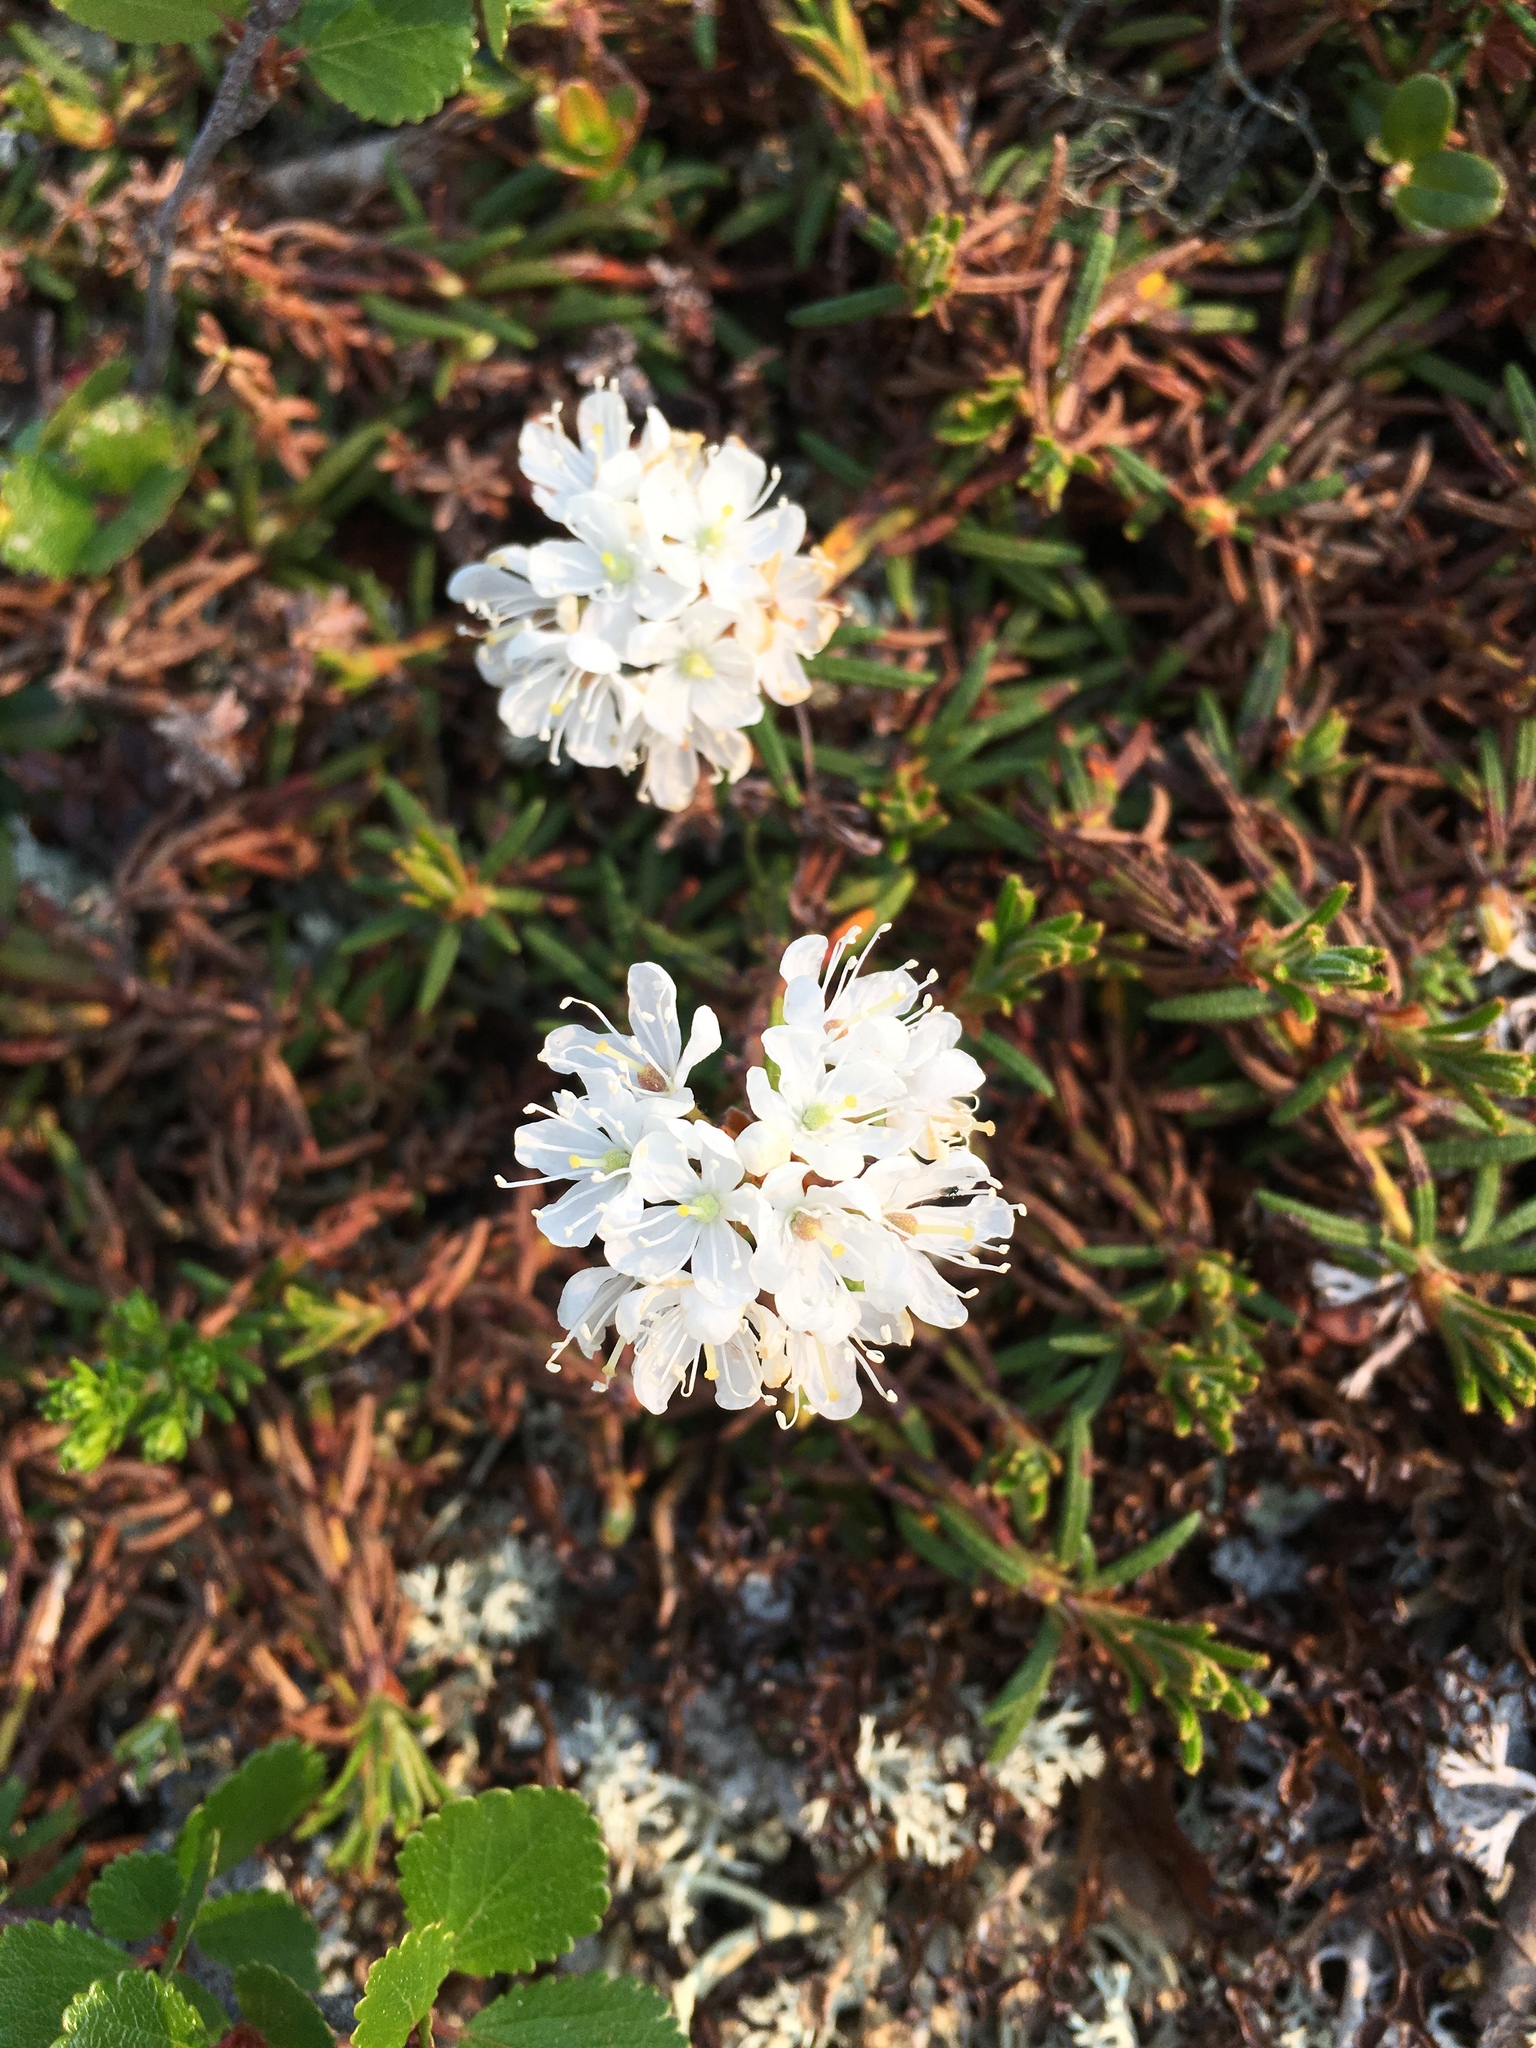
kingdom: Plantae
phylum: Tracheophyta
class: Magnoliopsida
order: Ericales
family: Ericaceae
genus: Rhododendron
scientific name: Rhododendron tomentosum
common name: Marsh labrador tea
